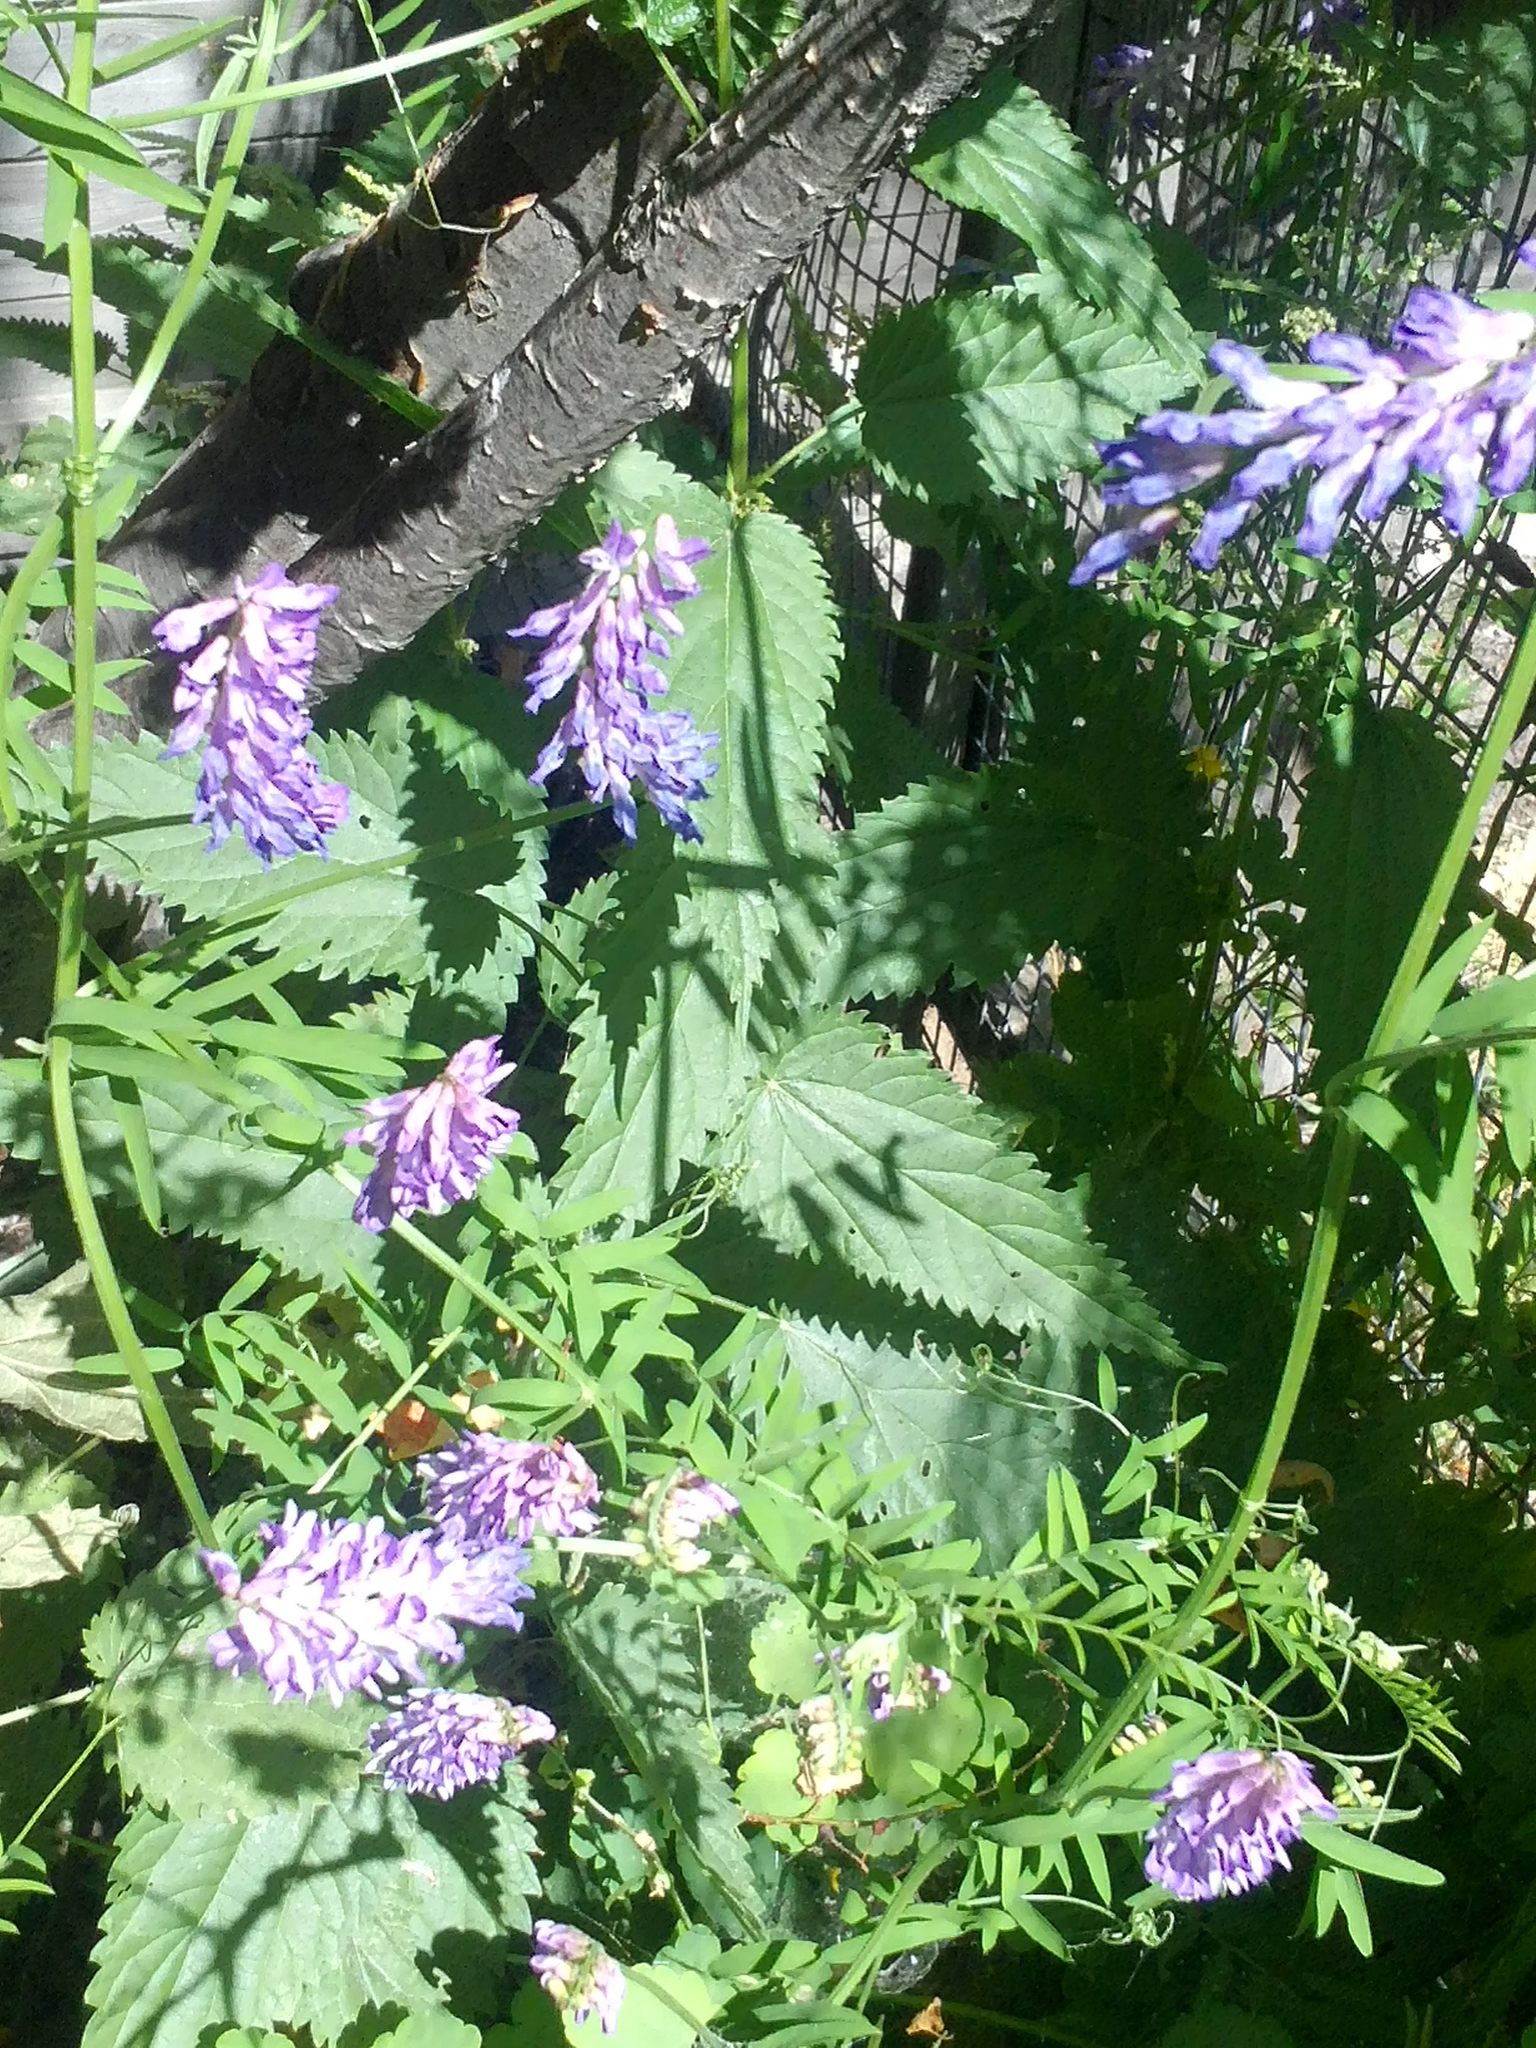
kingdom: Plantae
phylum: Tracheophyta
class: Magnoliopsida
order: Fabales
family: Fabaceae
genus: Vicia
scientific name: Vicia cracca
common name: Bird vetch
